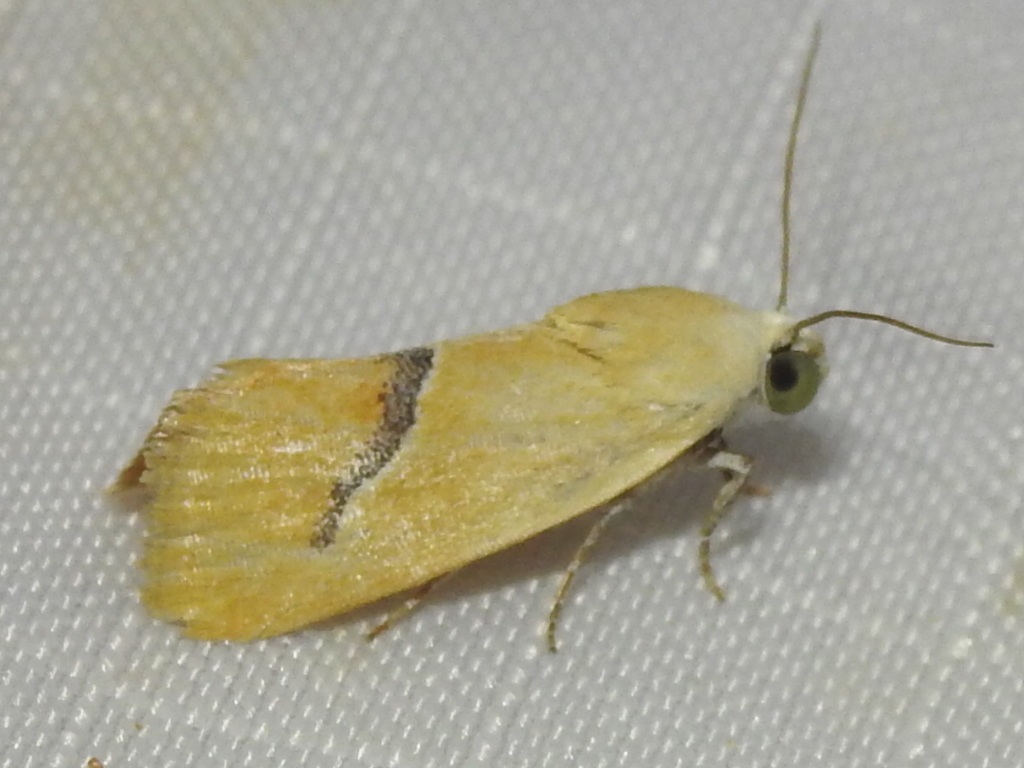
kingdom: Animalia
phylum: Arthropoda
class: Insecta
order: Lepidoptera
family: Noctuidae
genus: Ponometia
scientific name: Ponometia venustula
